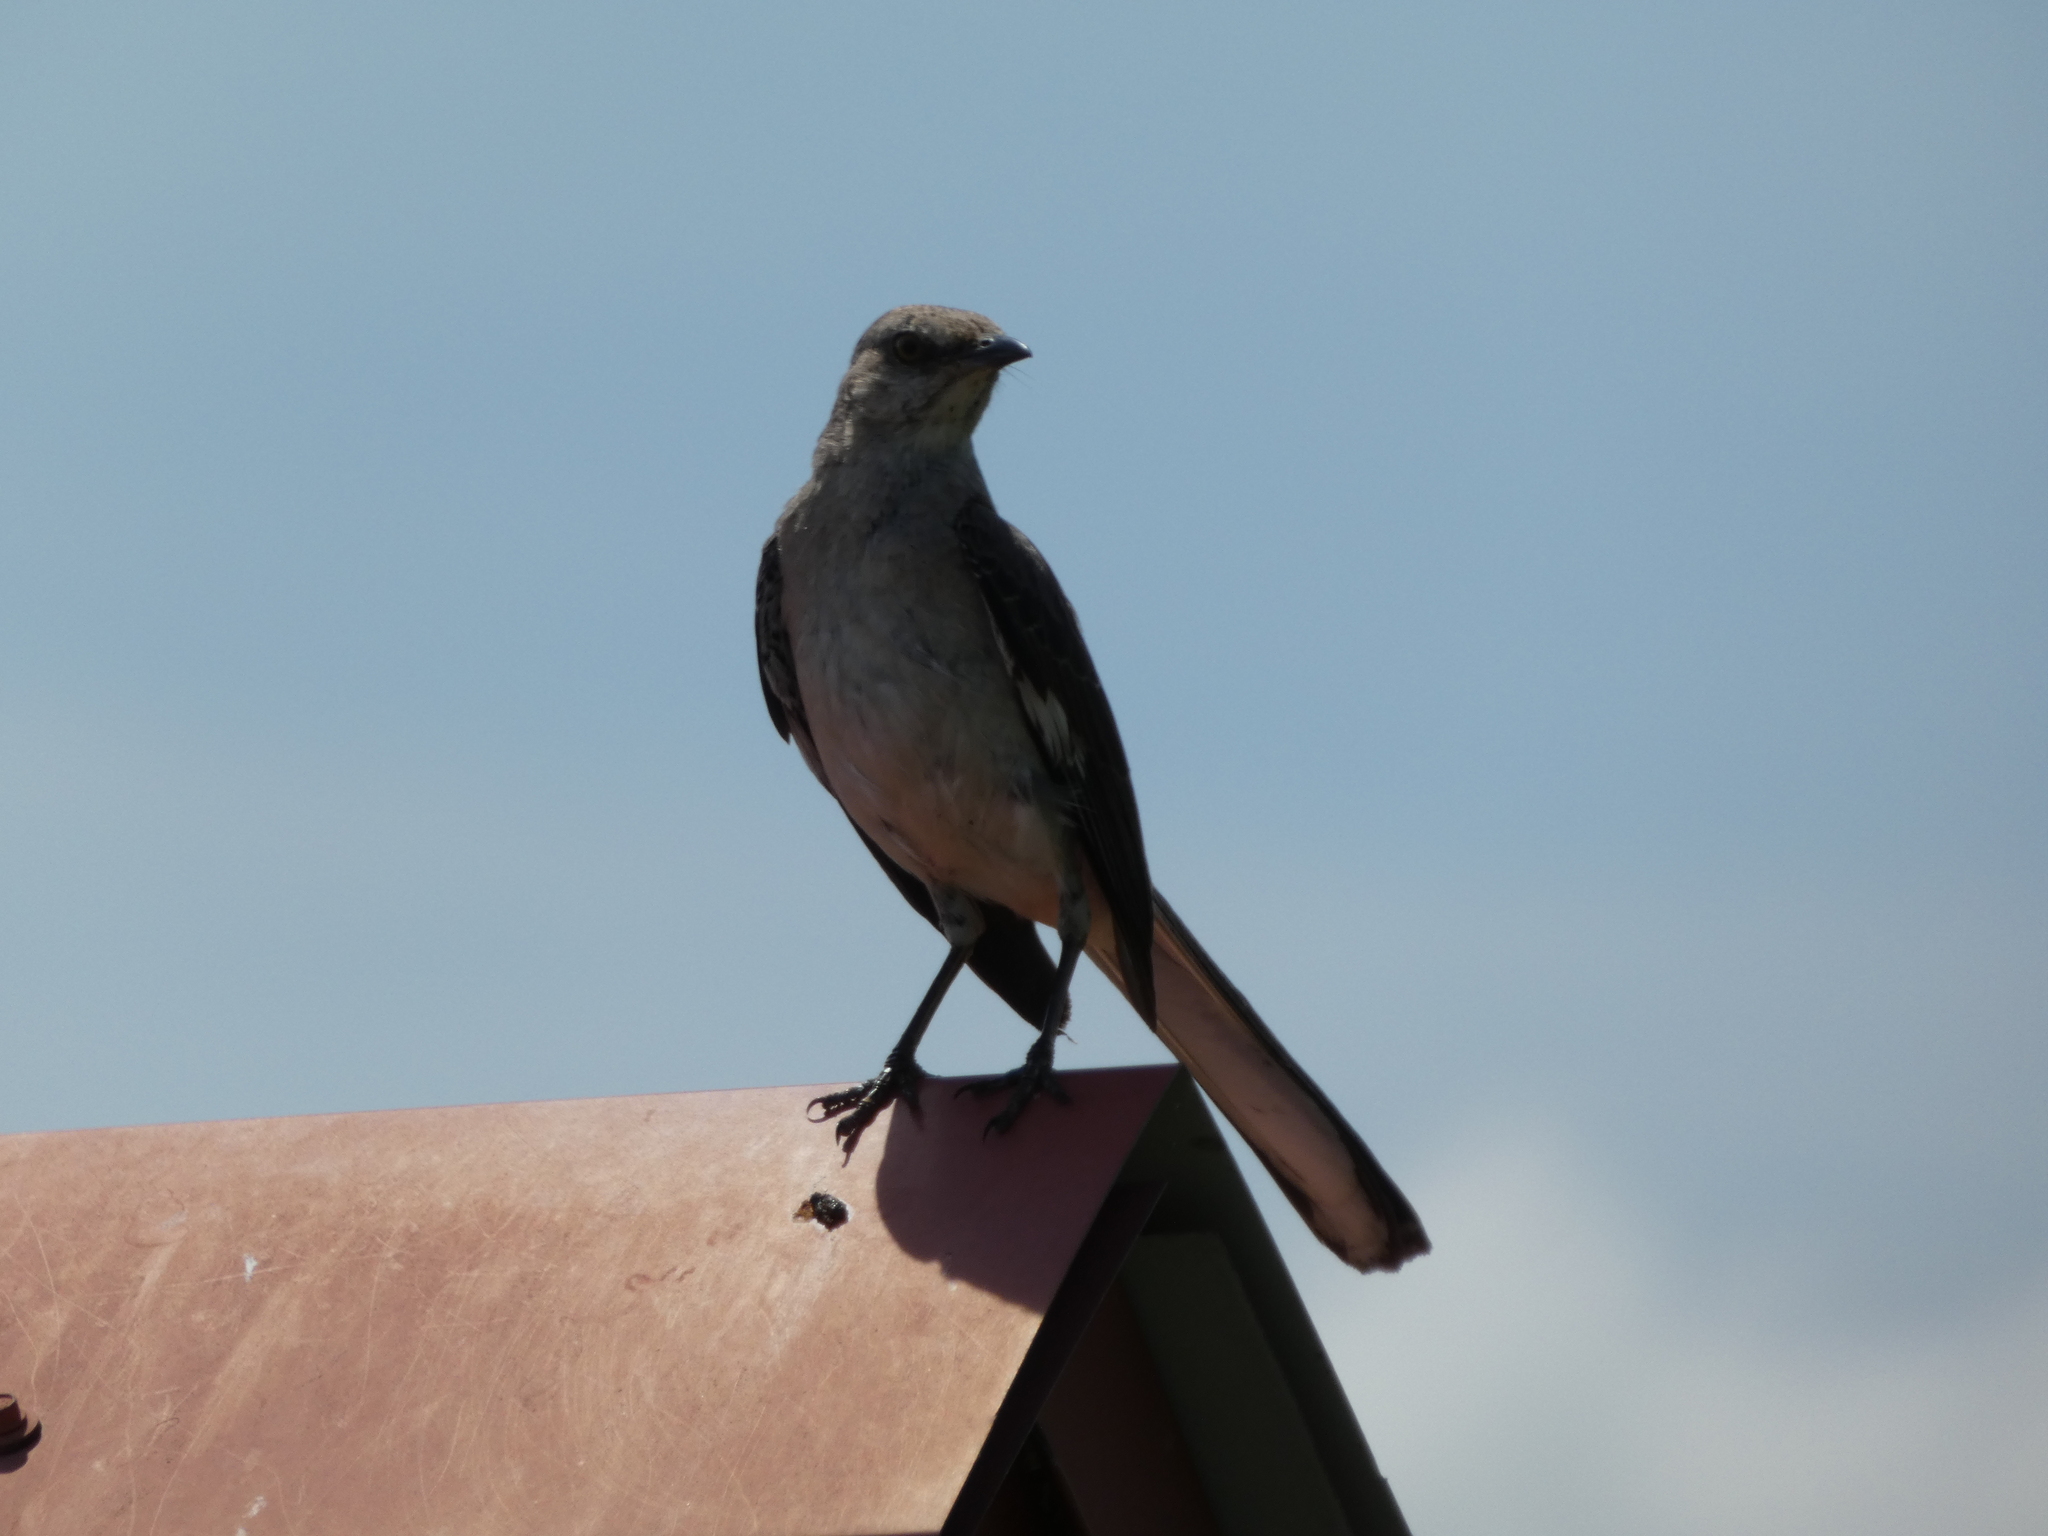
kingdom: Animalia
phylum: Chordata
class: Aves
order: Passeriformes
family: Mimidae
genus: Mimus
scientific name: Mimus polyglottos
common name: Northern mockingbird
